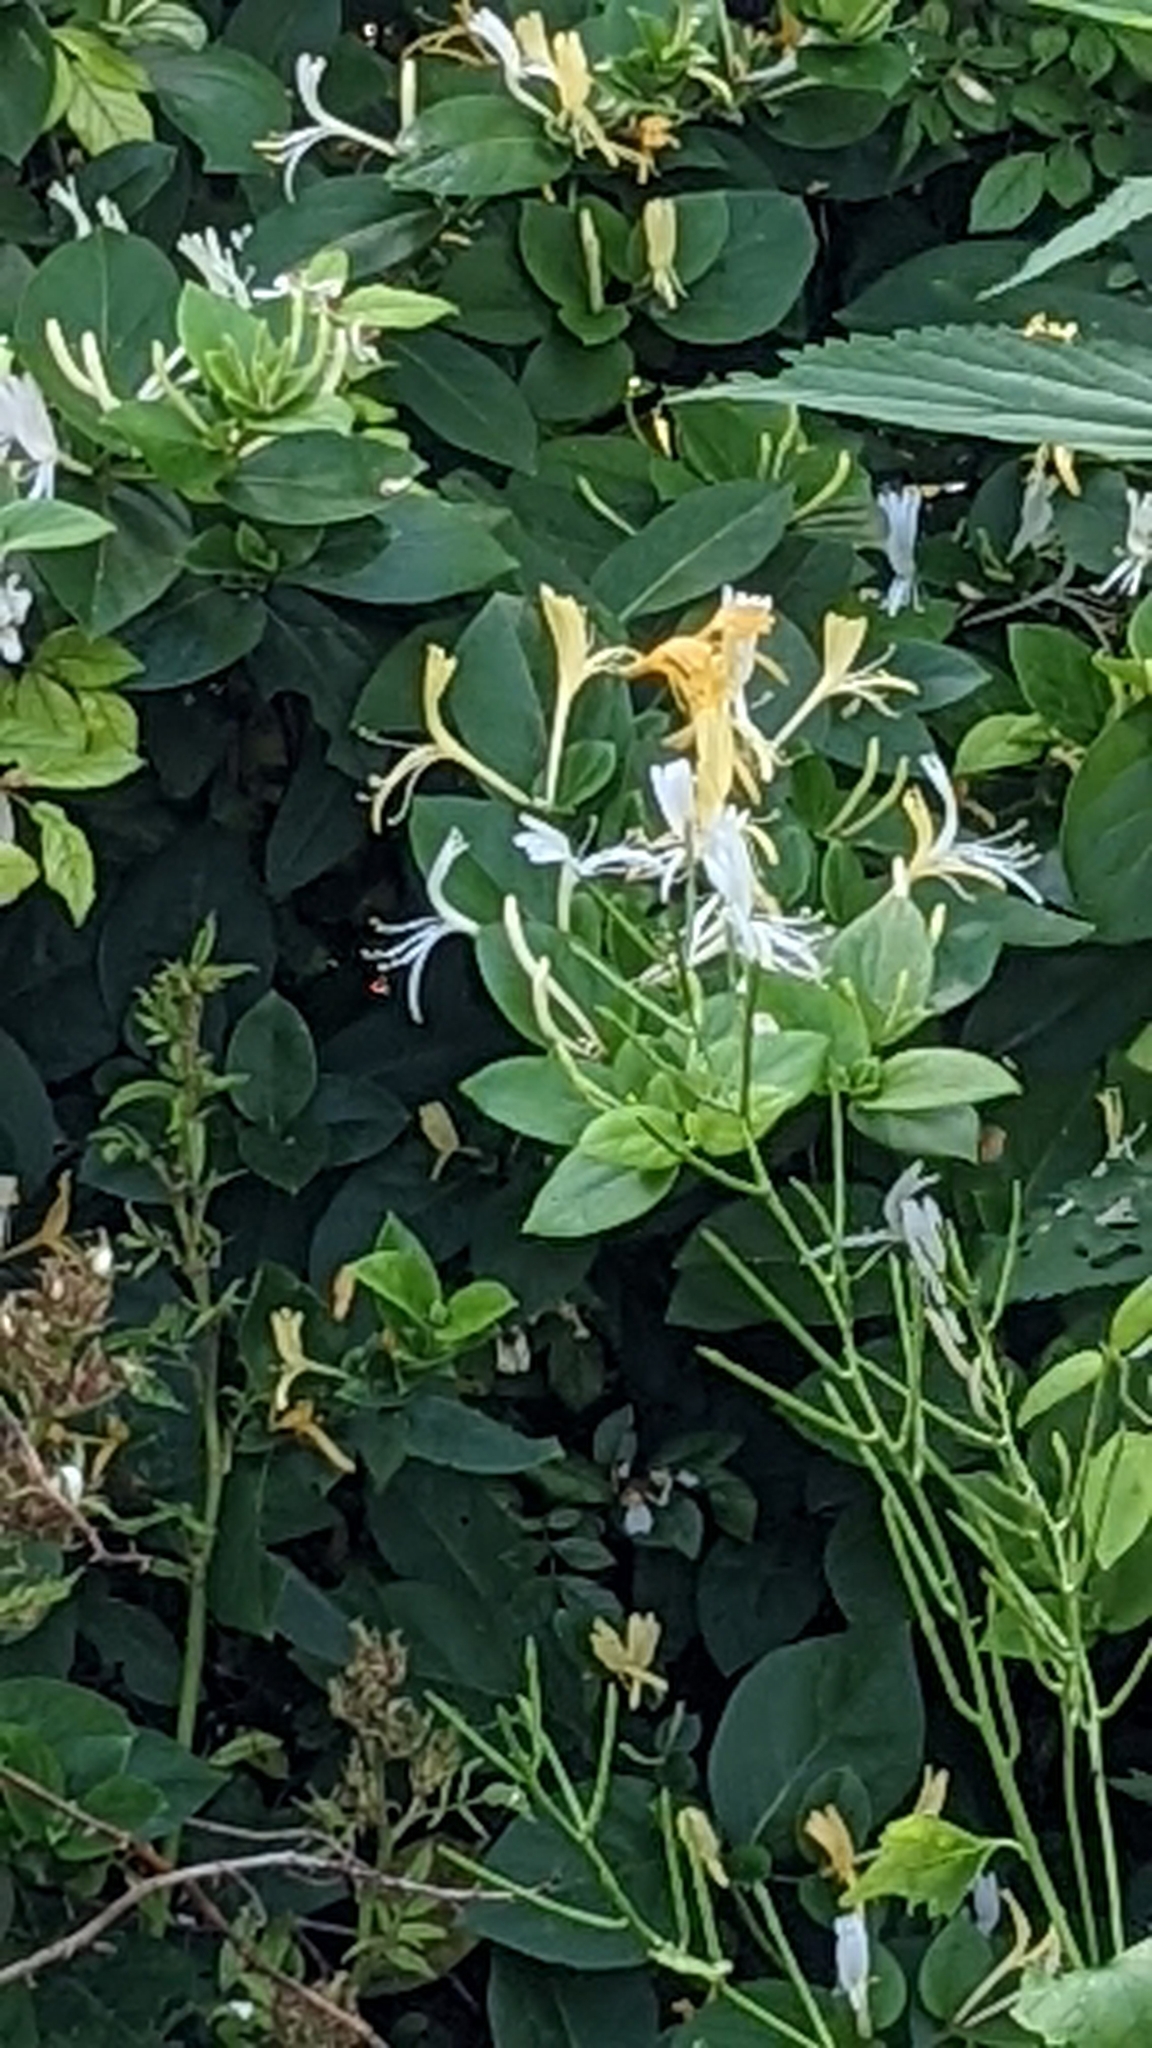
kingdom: Plantae
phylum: Tracheophyta
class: Magnoliopsida
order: Dipsacales
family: Caprifoliaceae
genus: Lonicera
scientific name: Lonicera japonica
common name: Japanese honeysuckle
